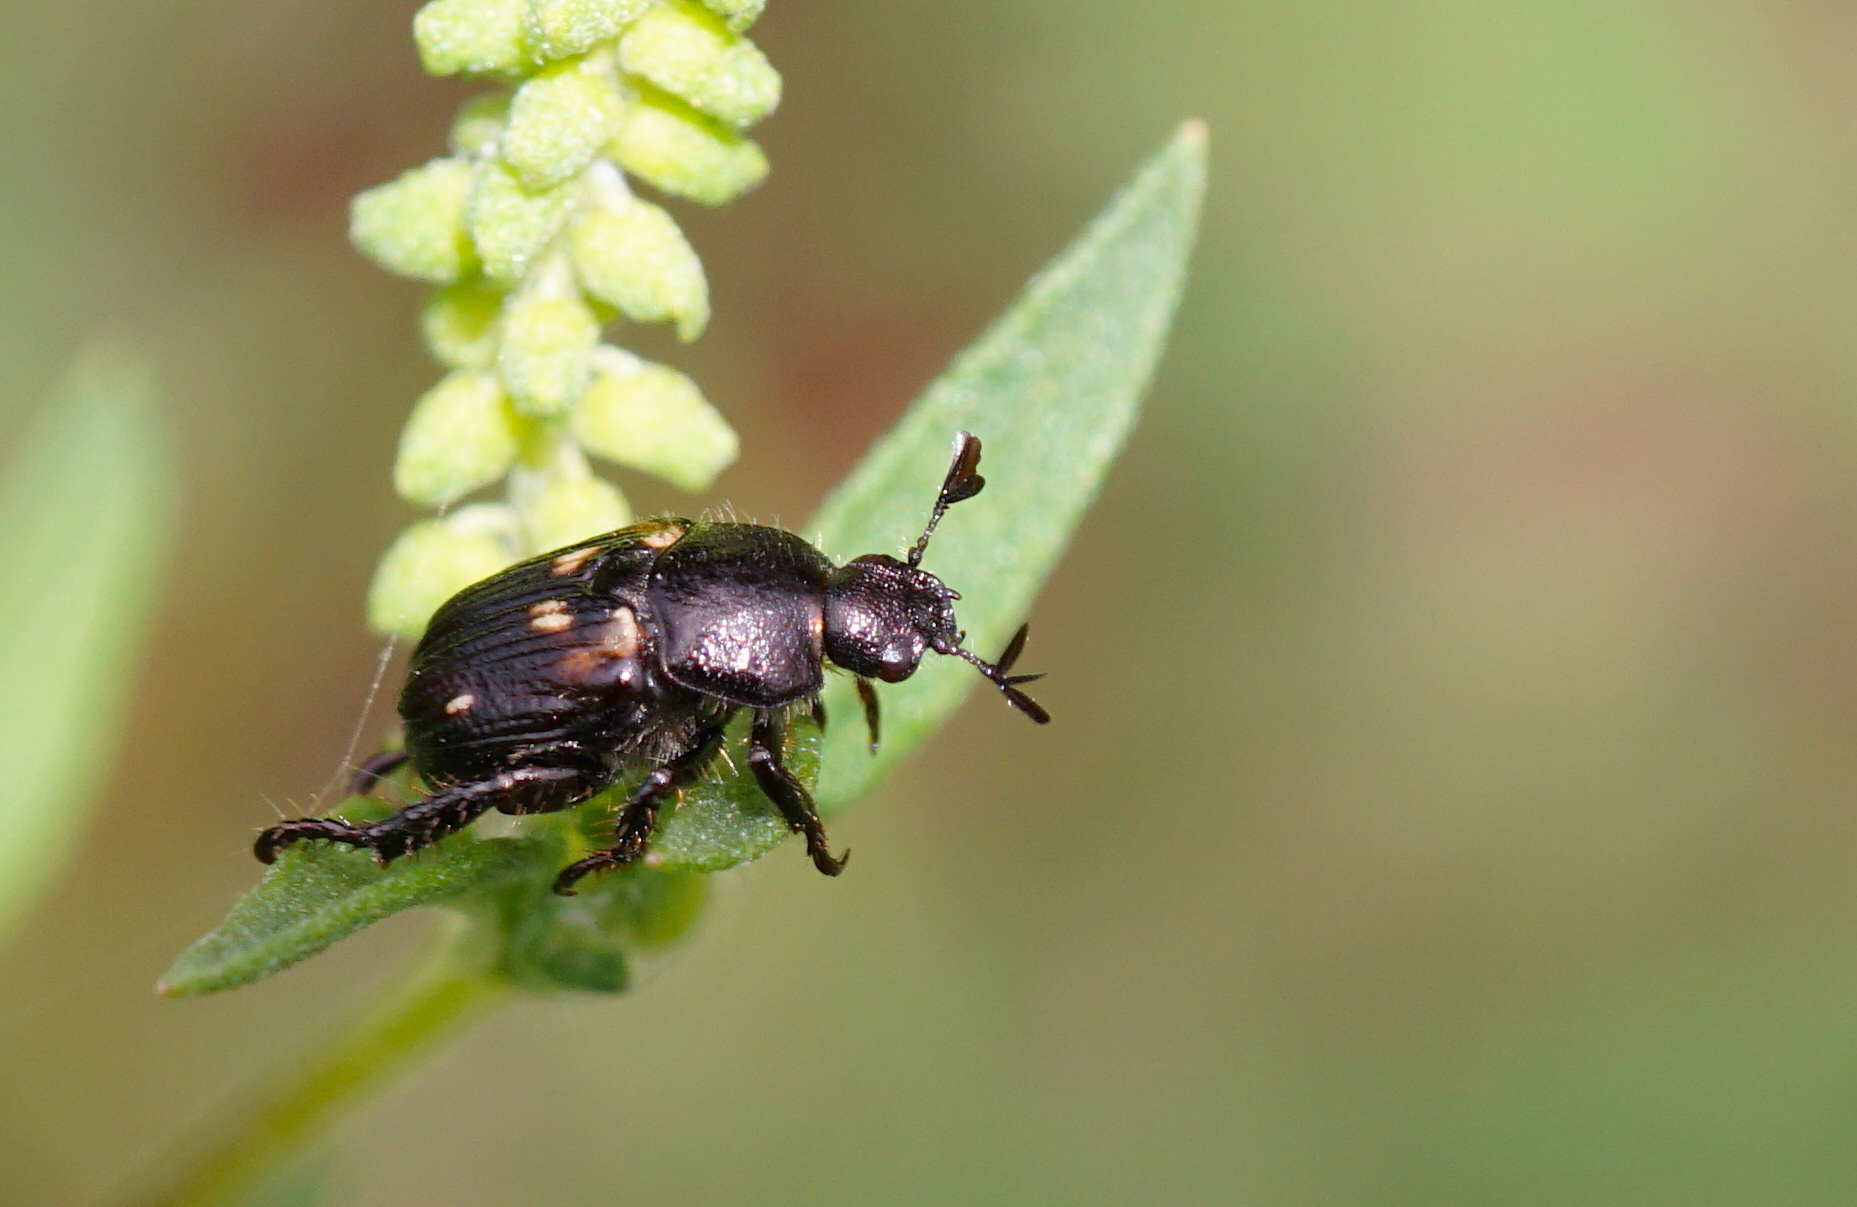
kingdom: Animalia
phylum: Arthropoda
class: Insecta
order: Coleoptera
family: Scarabaeidae
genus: Strigoderma
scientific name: Strigoderma pygmaea
